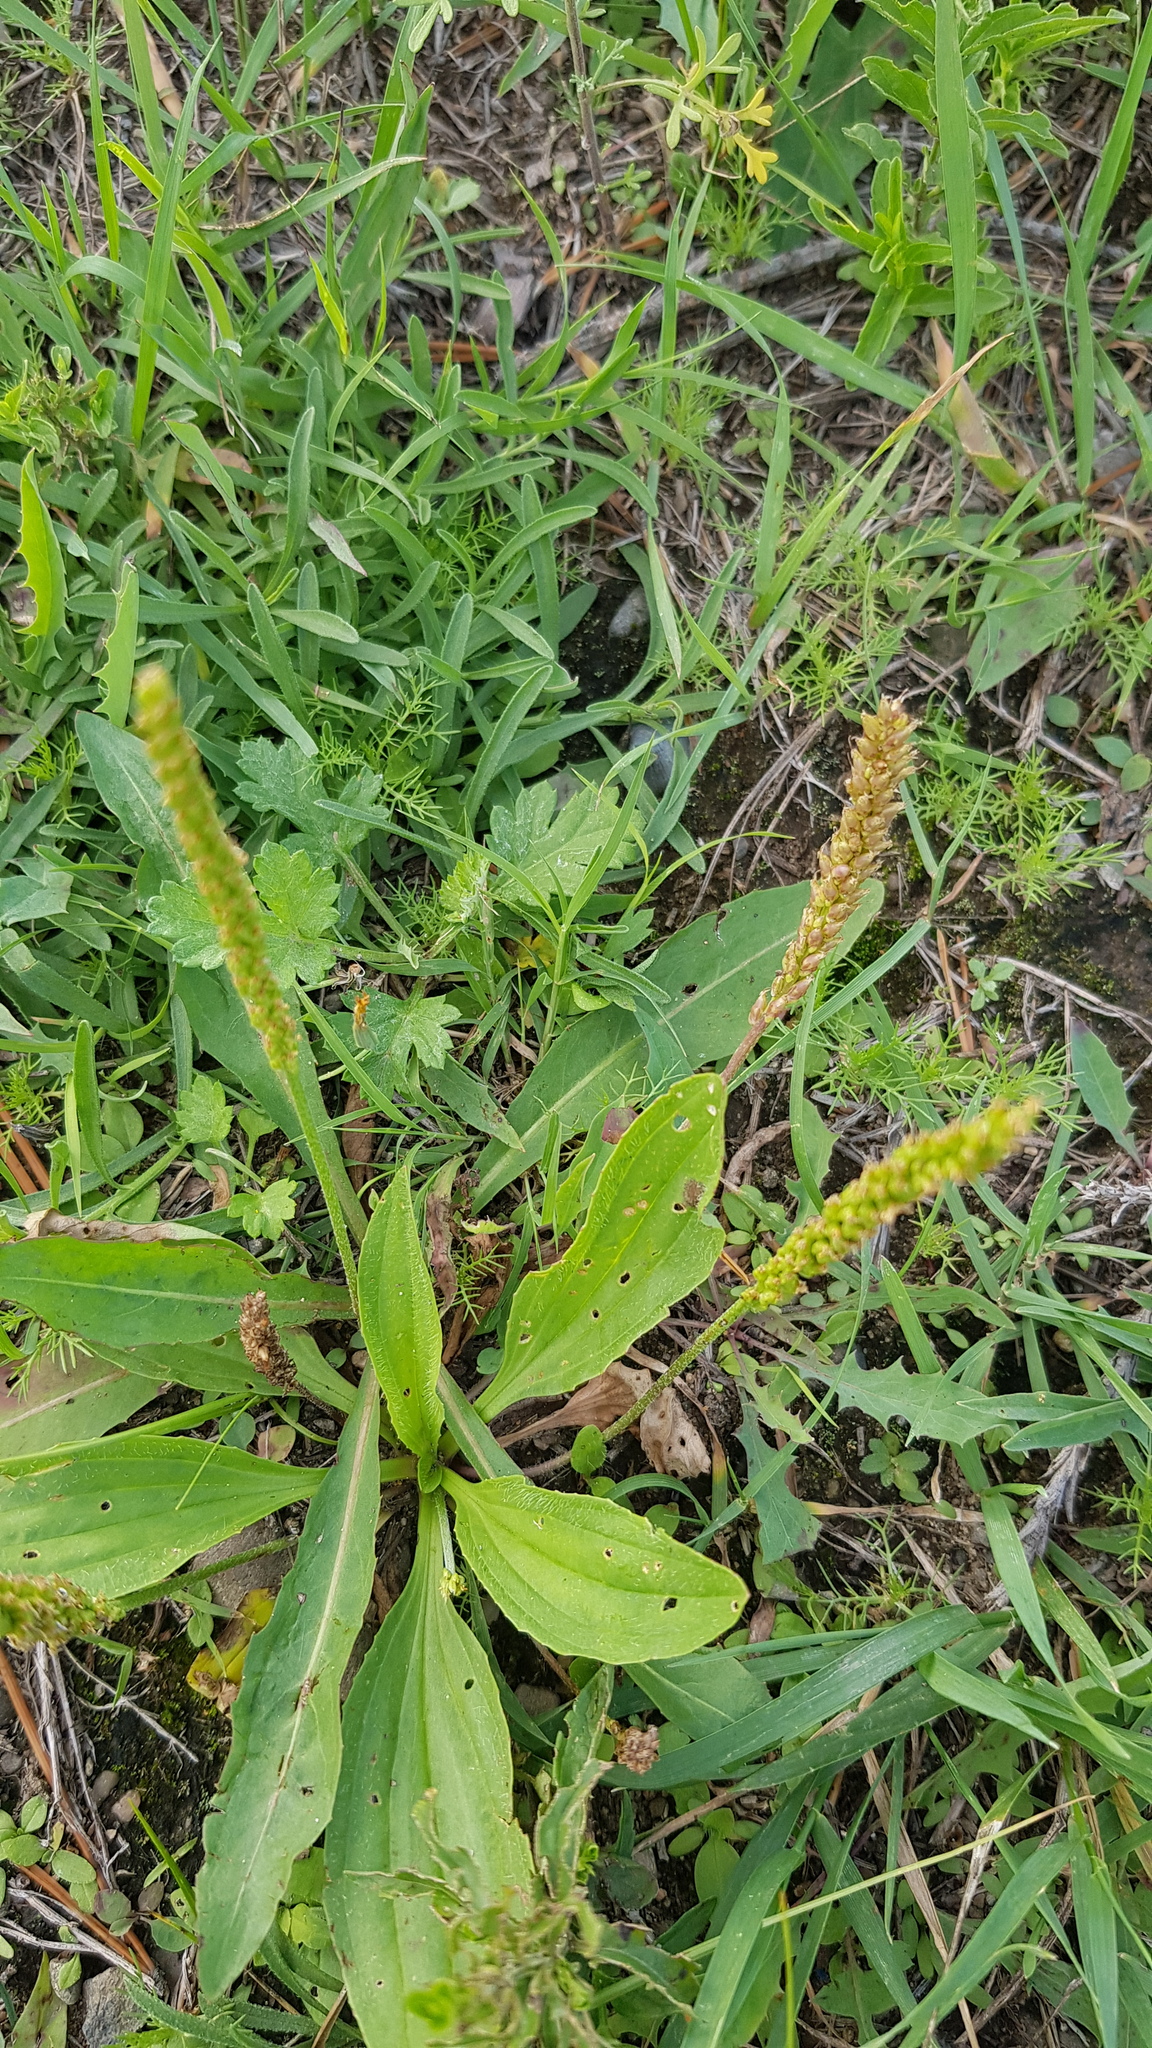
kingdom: Plantae
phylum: Tracheophyta
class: Magnoliopsida
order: Lamiales
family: Plantaginaceae
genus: Plantago
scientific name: Plantago depressa
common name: Depressed plantain
